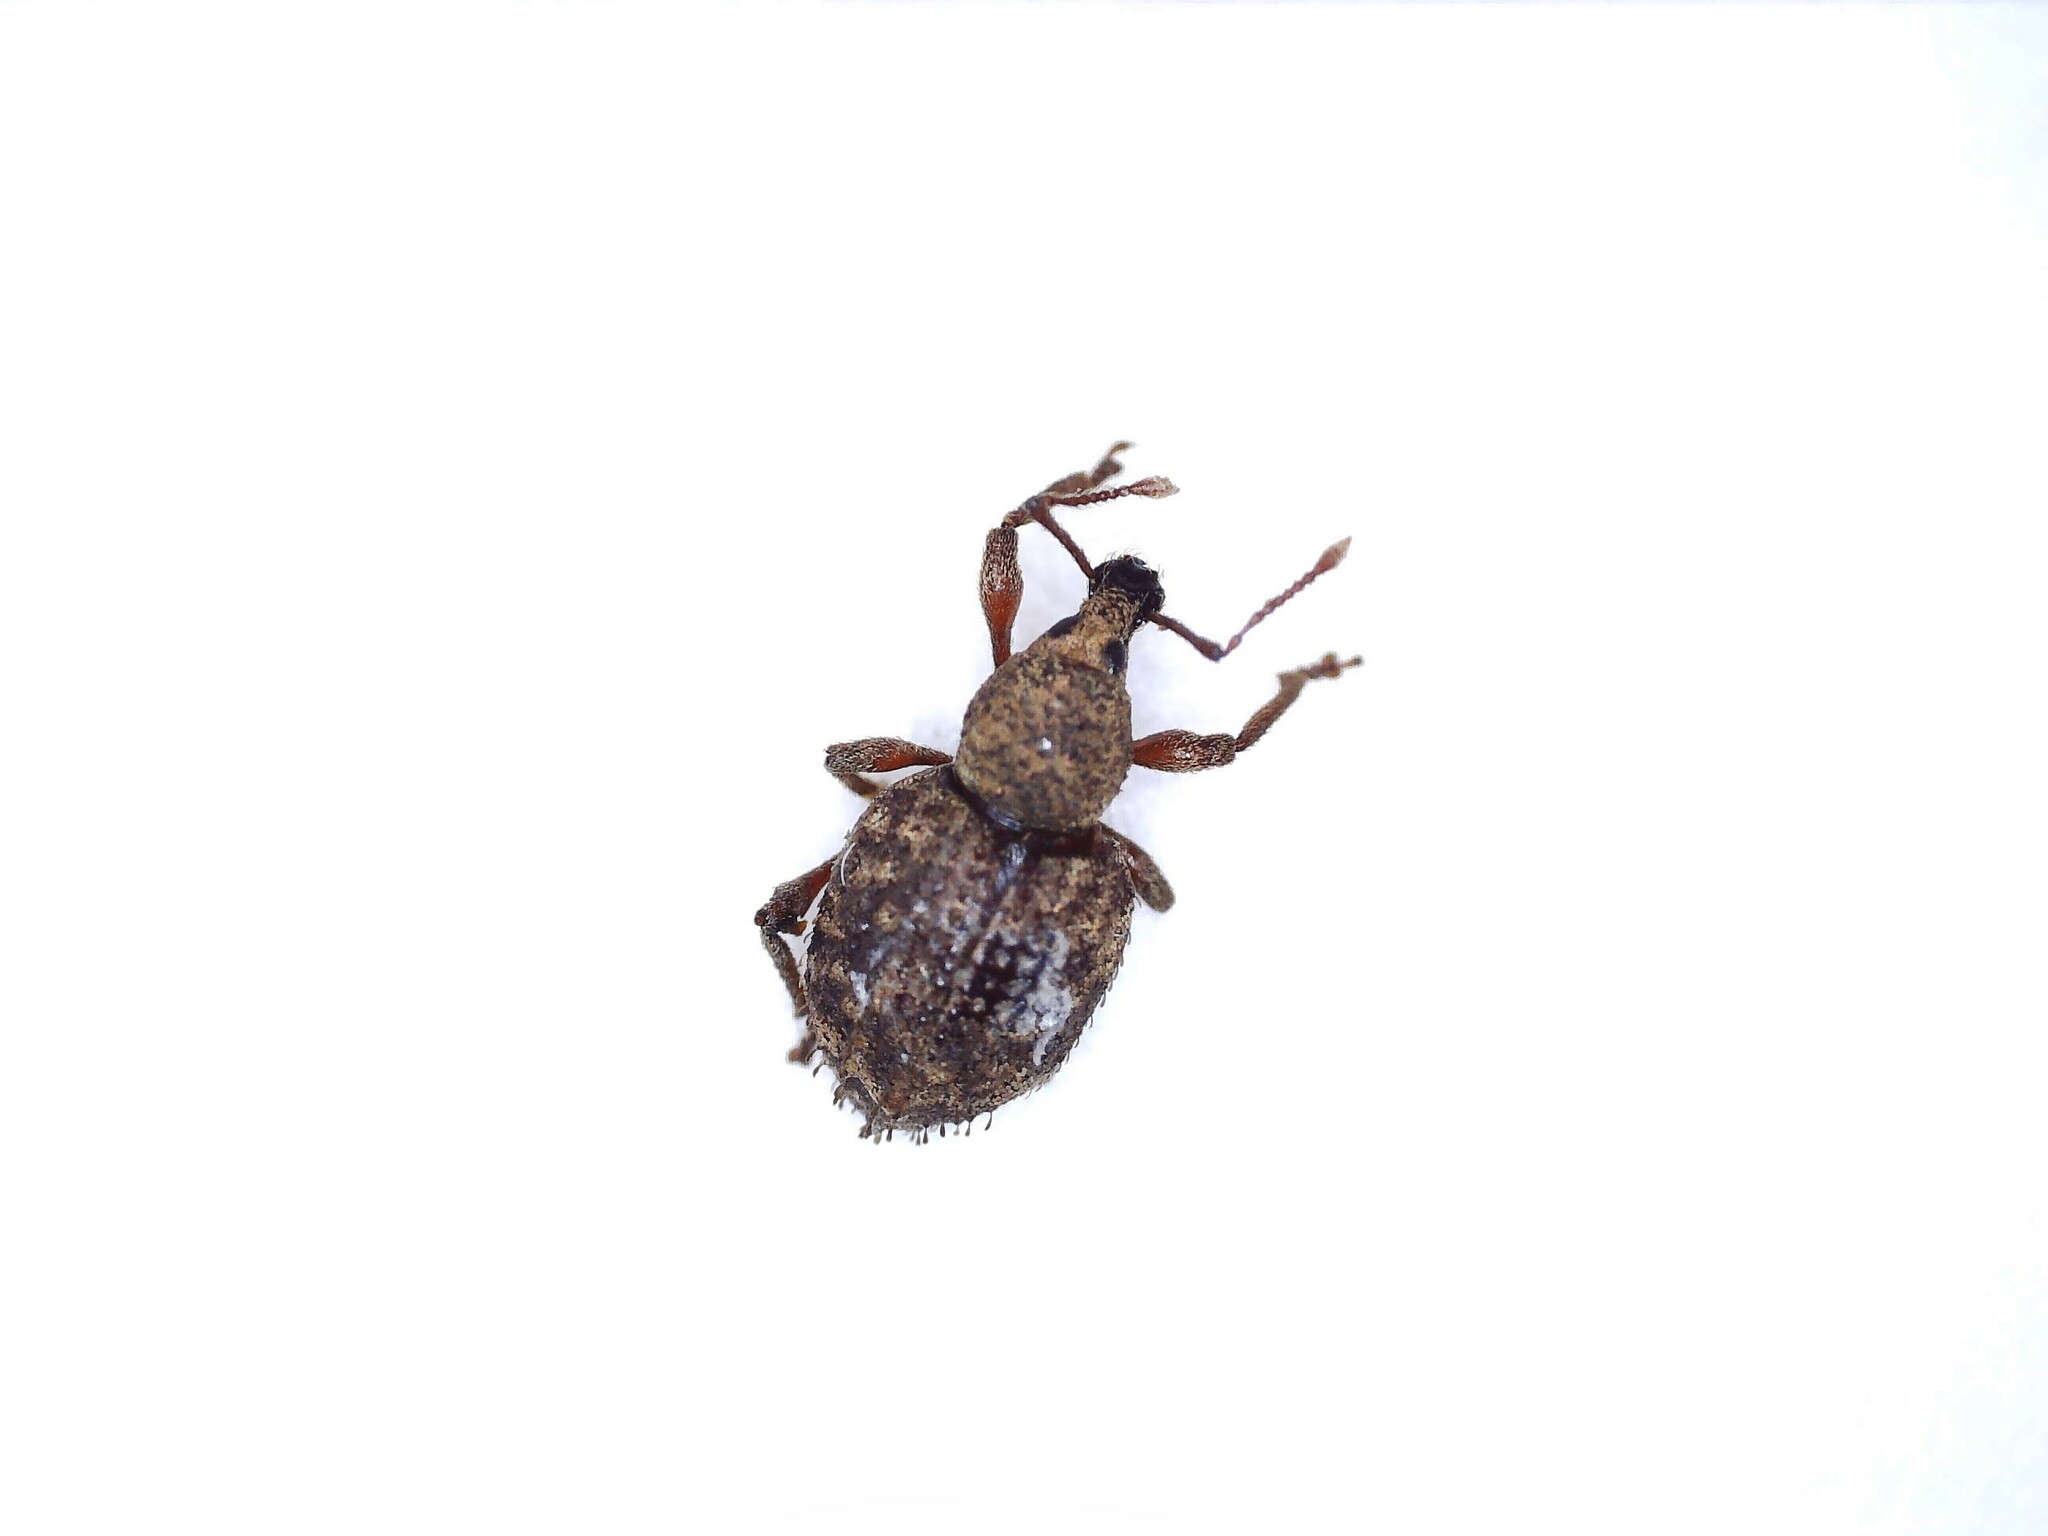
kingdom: Animalia
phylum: Arthropoda
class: Insecta
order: Coleoptera
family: Curculionidae
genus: Otiorhynchus
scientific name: Otiorhynchus carinatopunctatus
